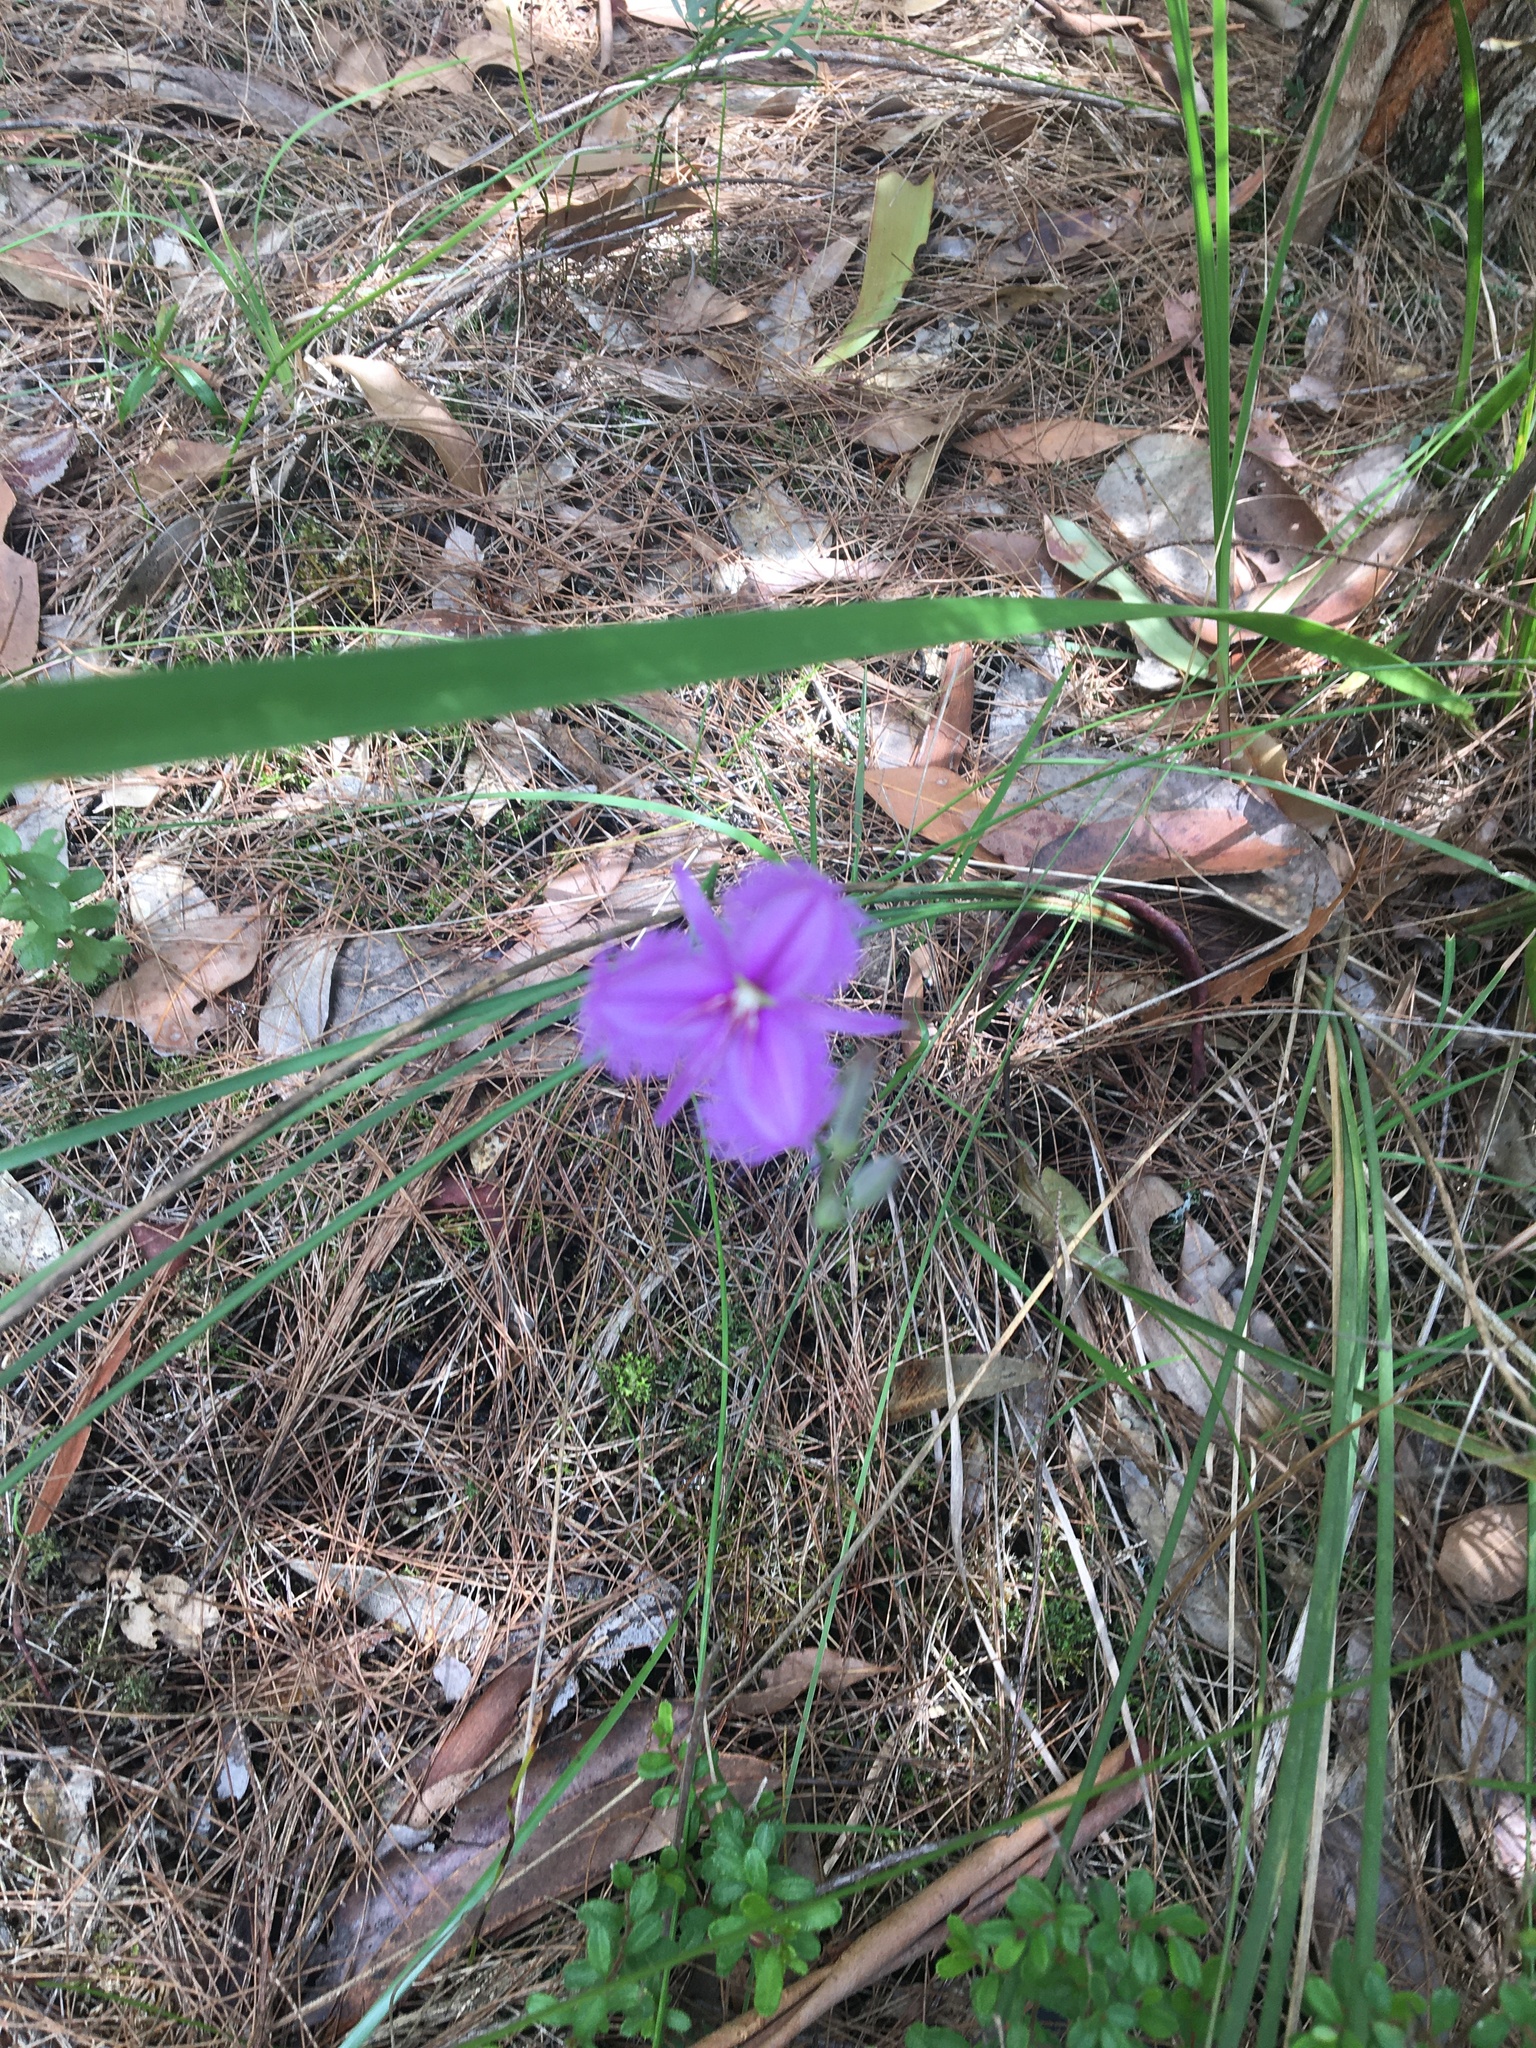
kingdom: Plantae
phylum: Tracheophyta
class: Liliopsida
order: Asparagales
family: Asparagaceae
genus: Thysanotus
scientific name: Thysanotus tuberosus
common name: Common fringed-lily
